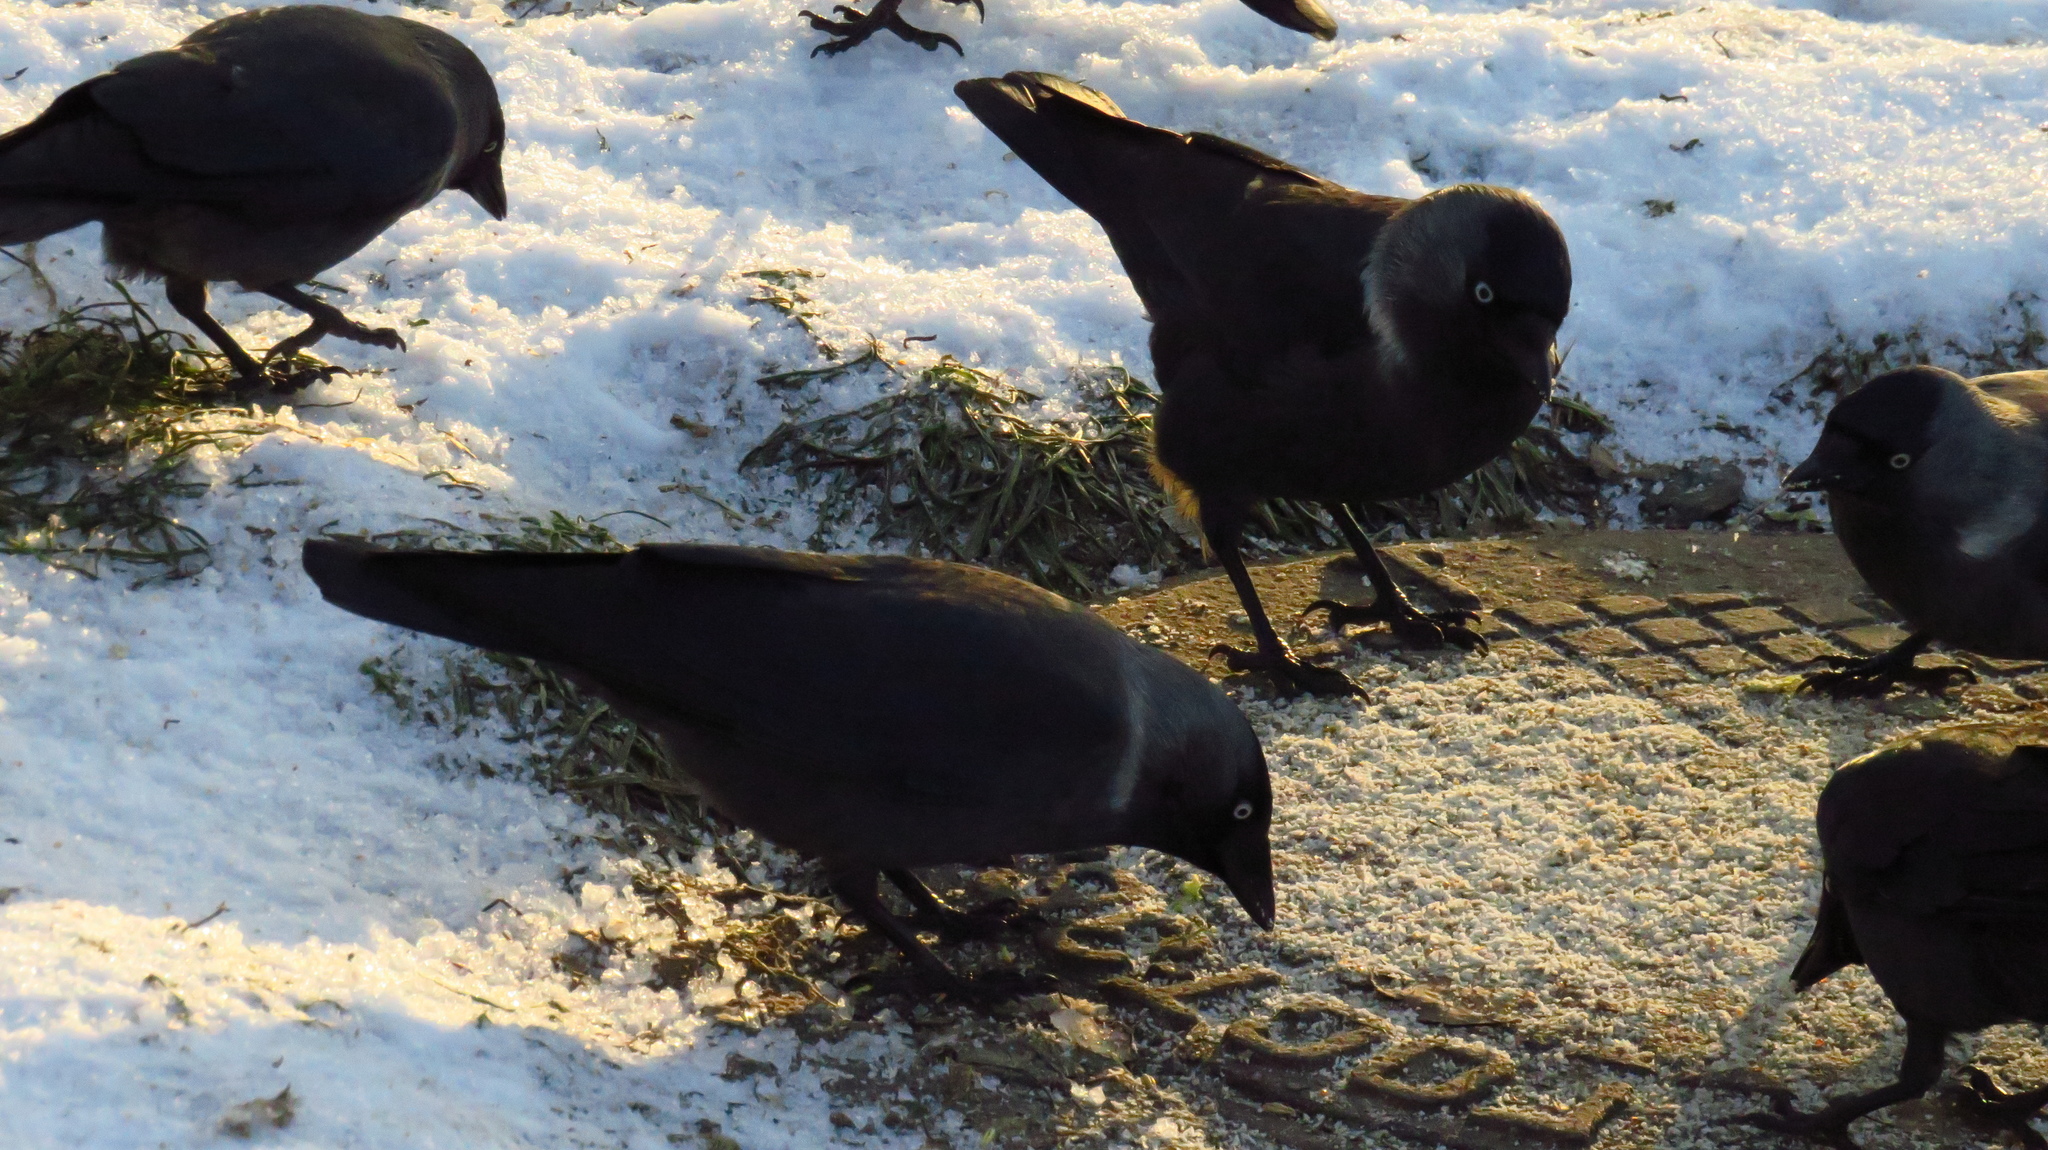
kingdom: Animalia
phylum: Chordata
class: Aves
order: Passeriformes
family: Corvidae
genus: Coloeus
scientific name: Coloeus monedula
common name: Western jackdaw
